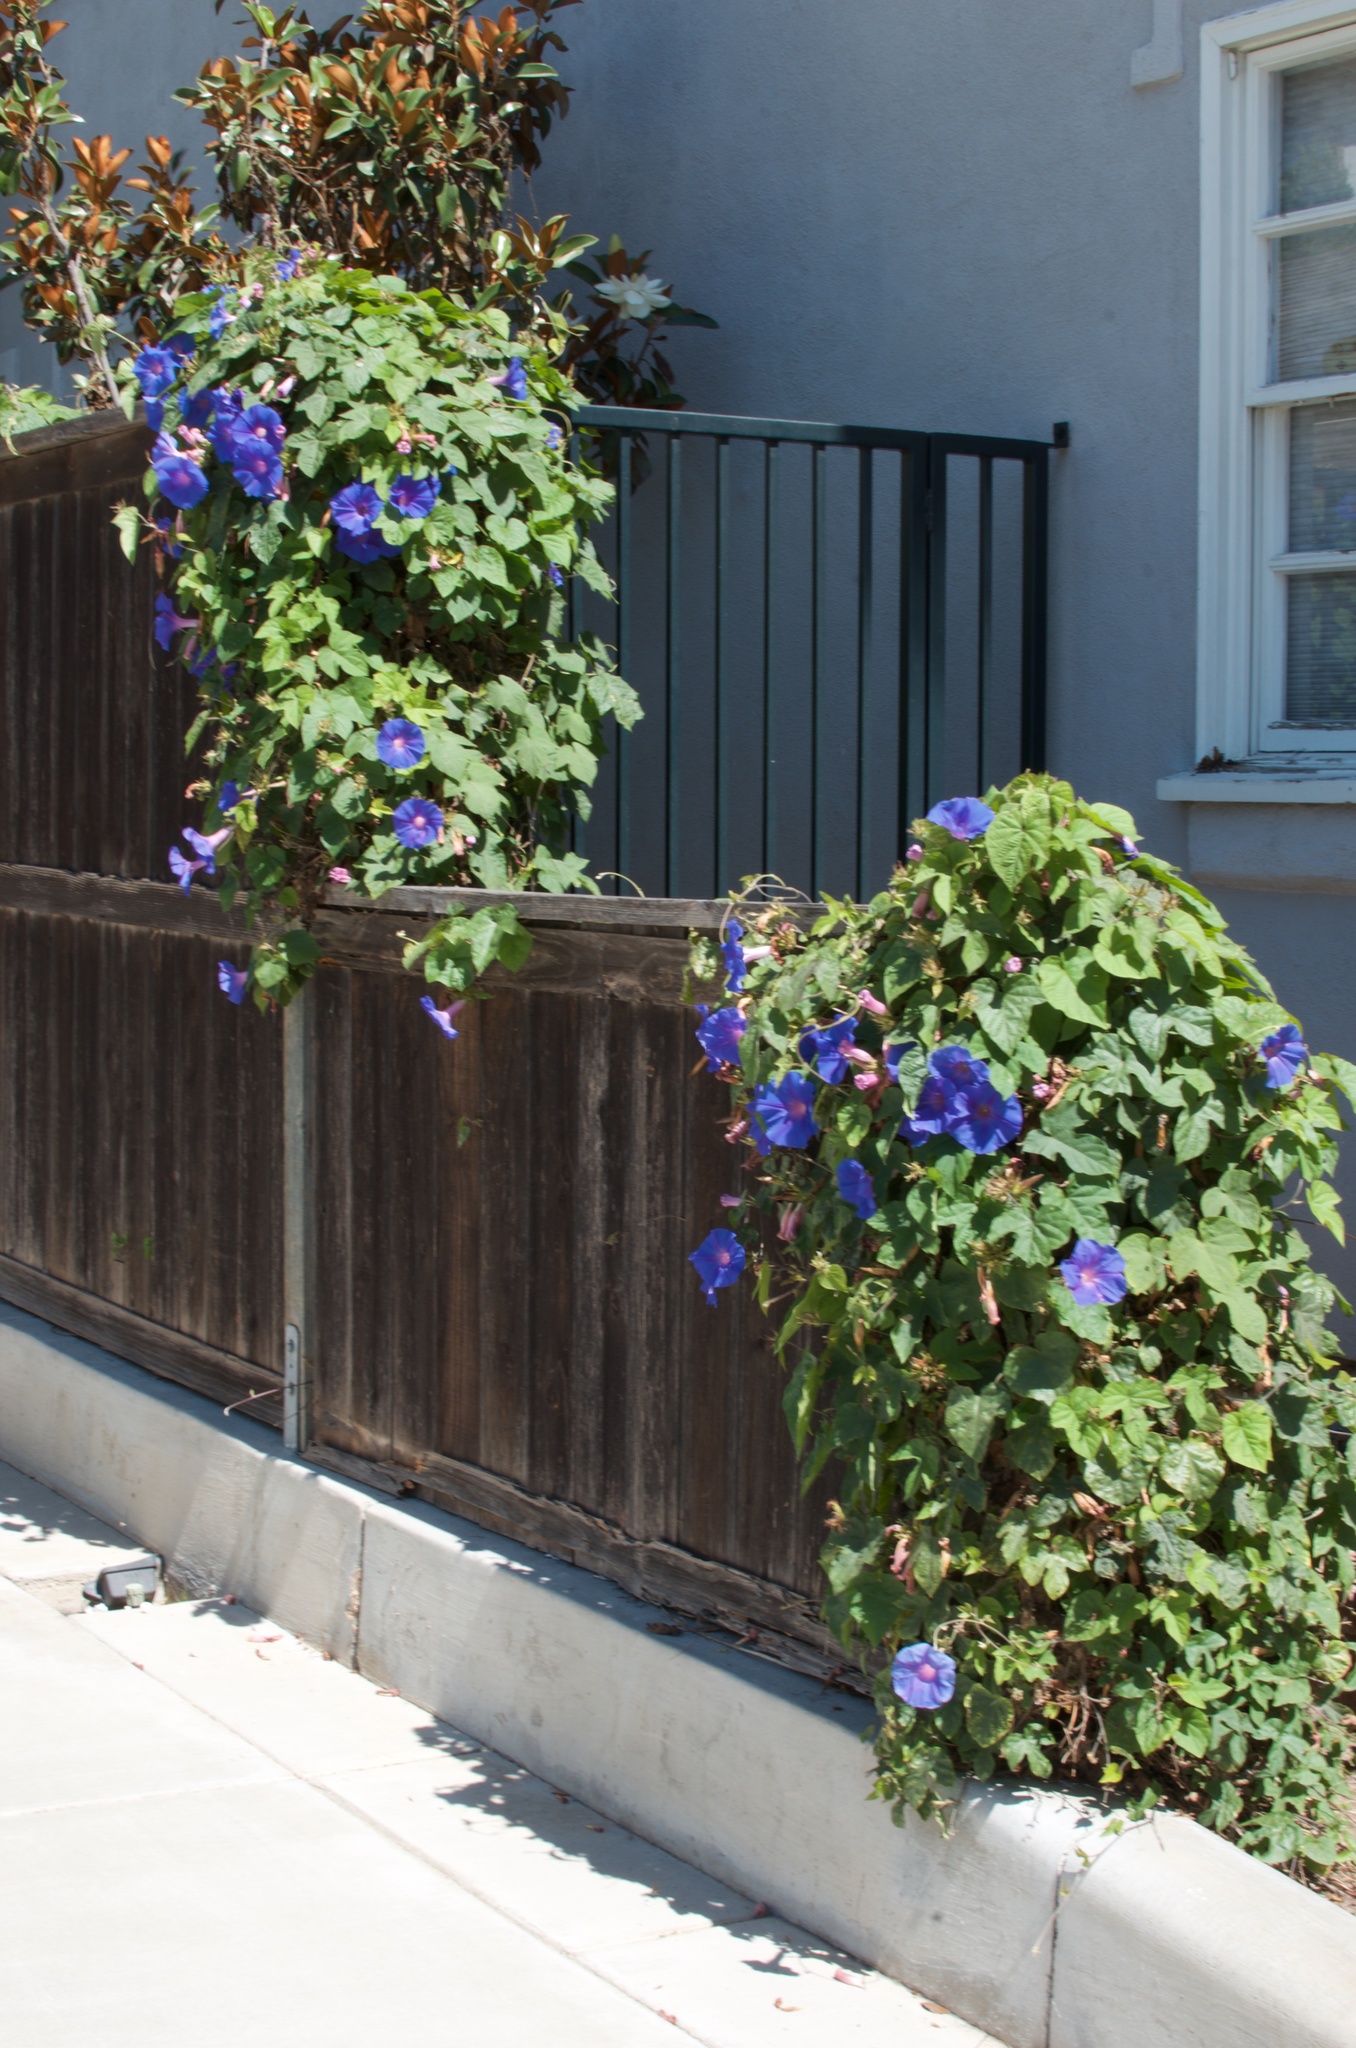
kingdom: Plantae
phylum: Tracheophyta
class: Magnoliopsida
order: Solanales
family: Convolvulaceae
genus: Ipomoea
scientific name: Ipomoea indica
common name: Blue dawnflower
